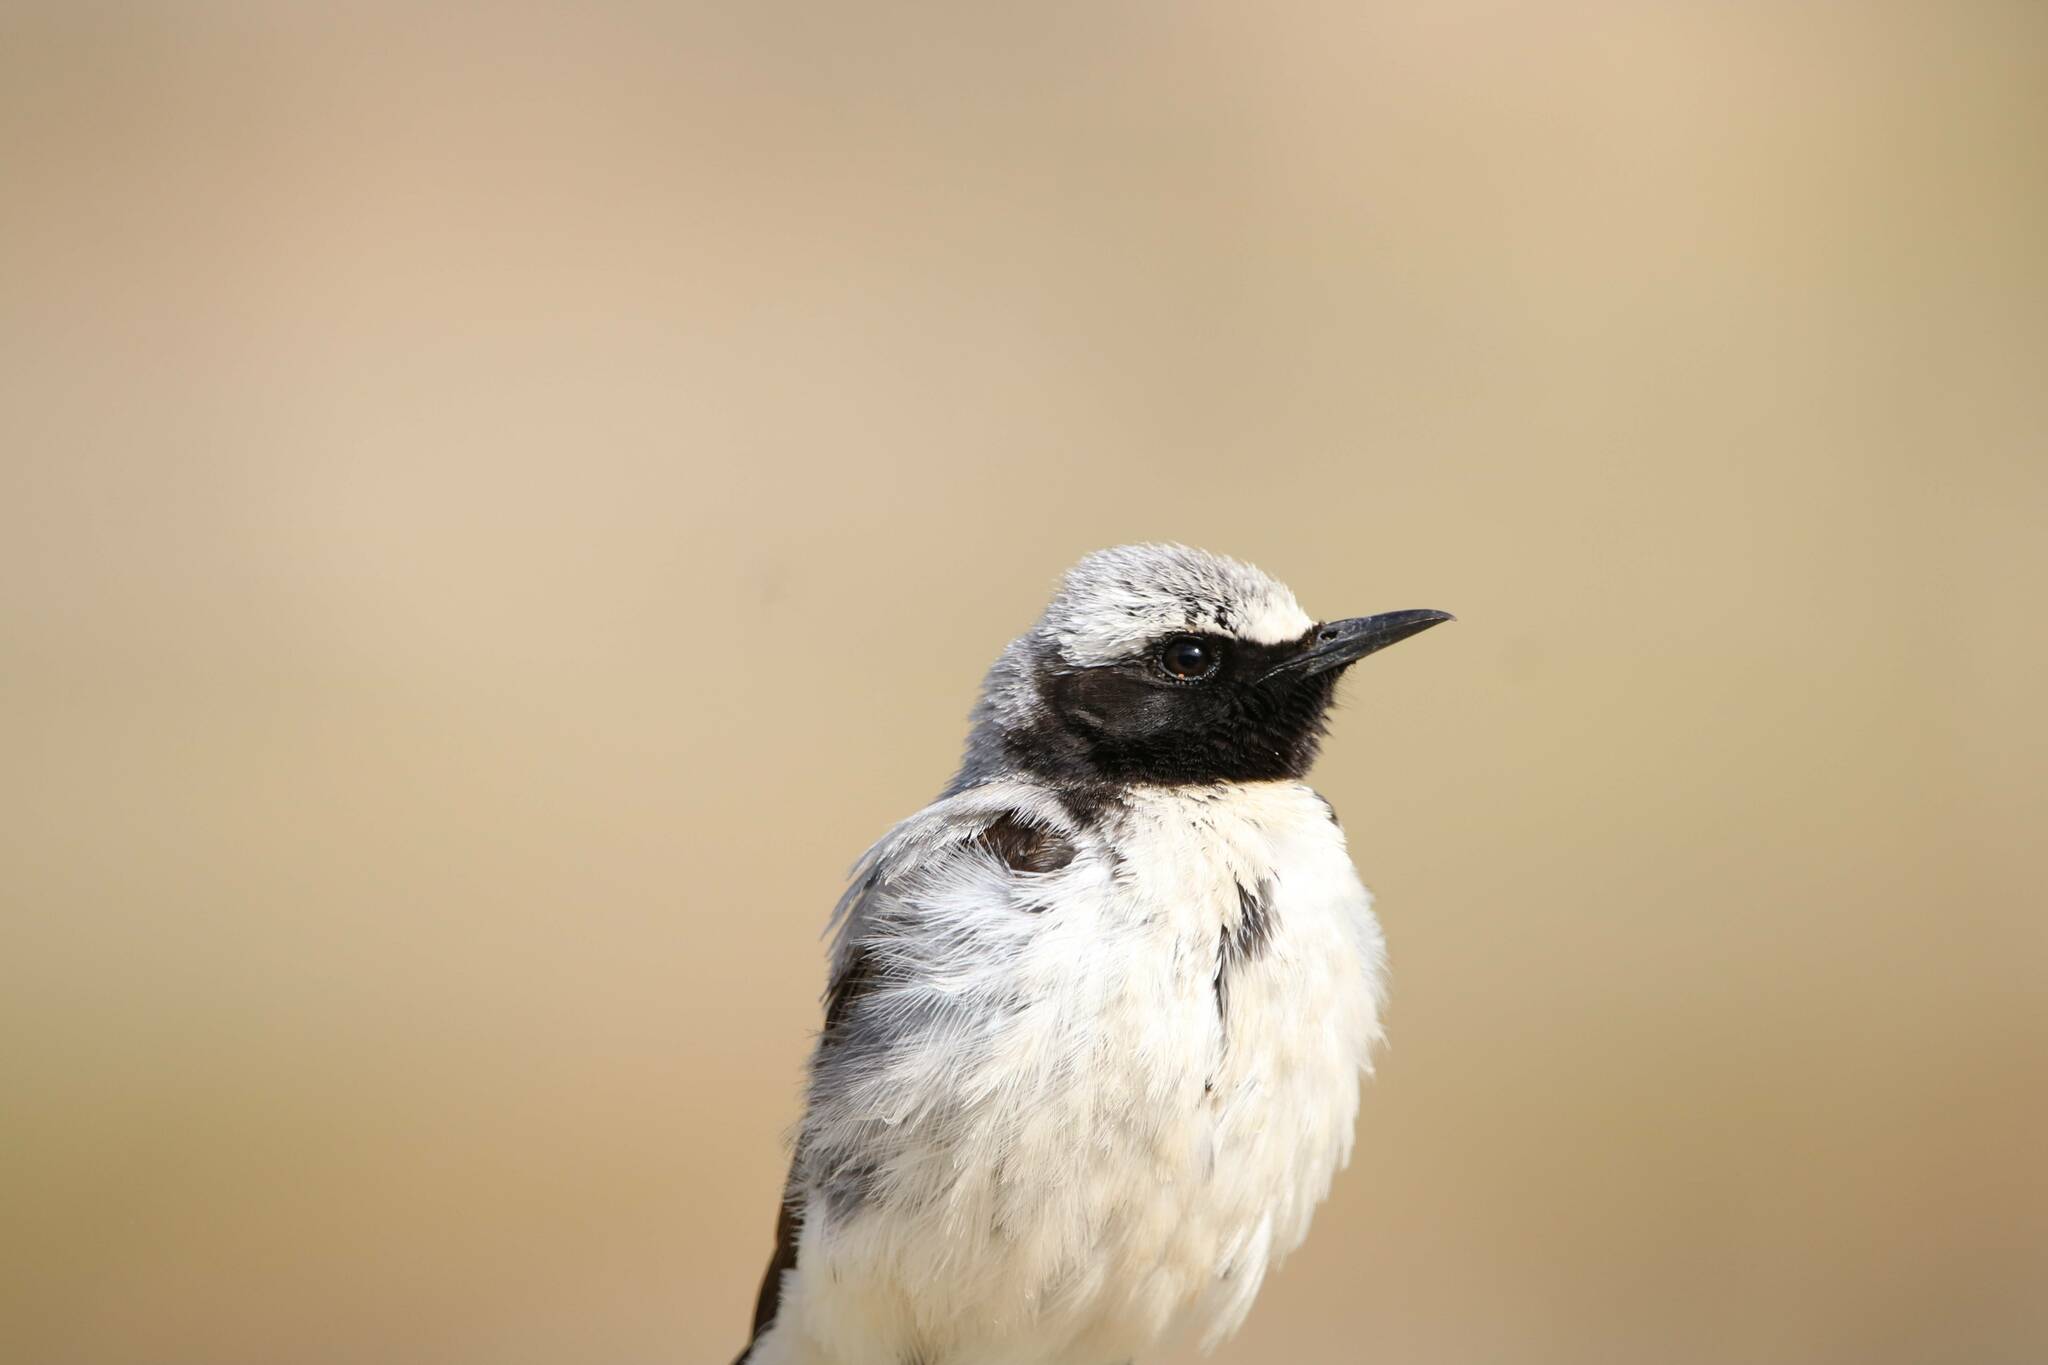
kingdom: Animalia
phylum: Chordata
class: Aves
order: Passeriformes
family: Muscicapidae
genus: Oenanthe
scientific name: Oenanthe oenanthe
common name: Northern wheatear
